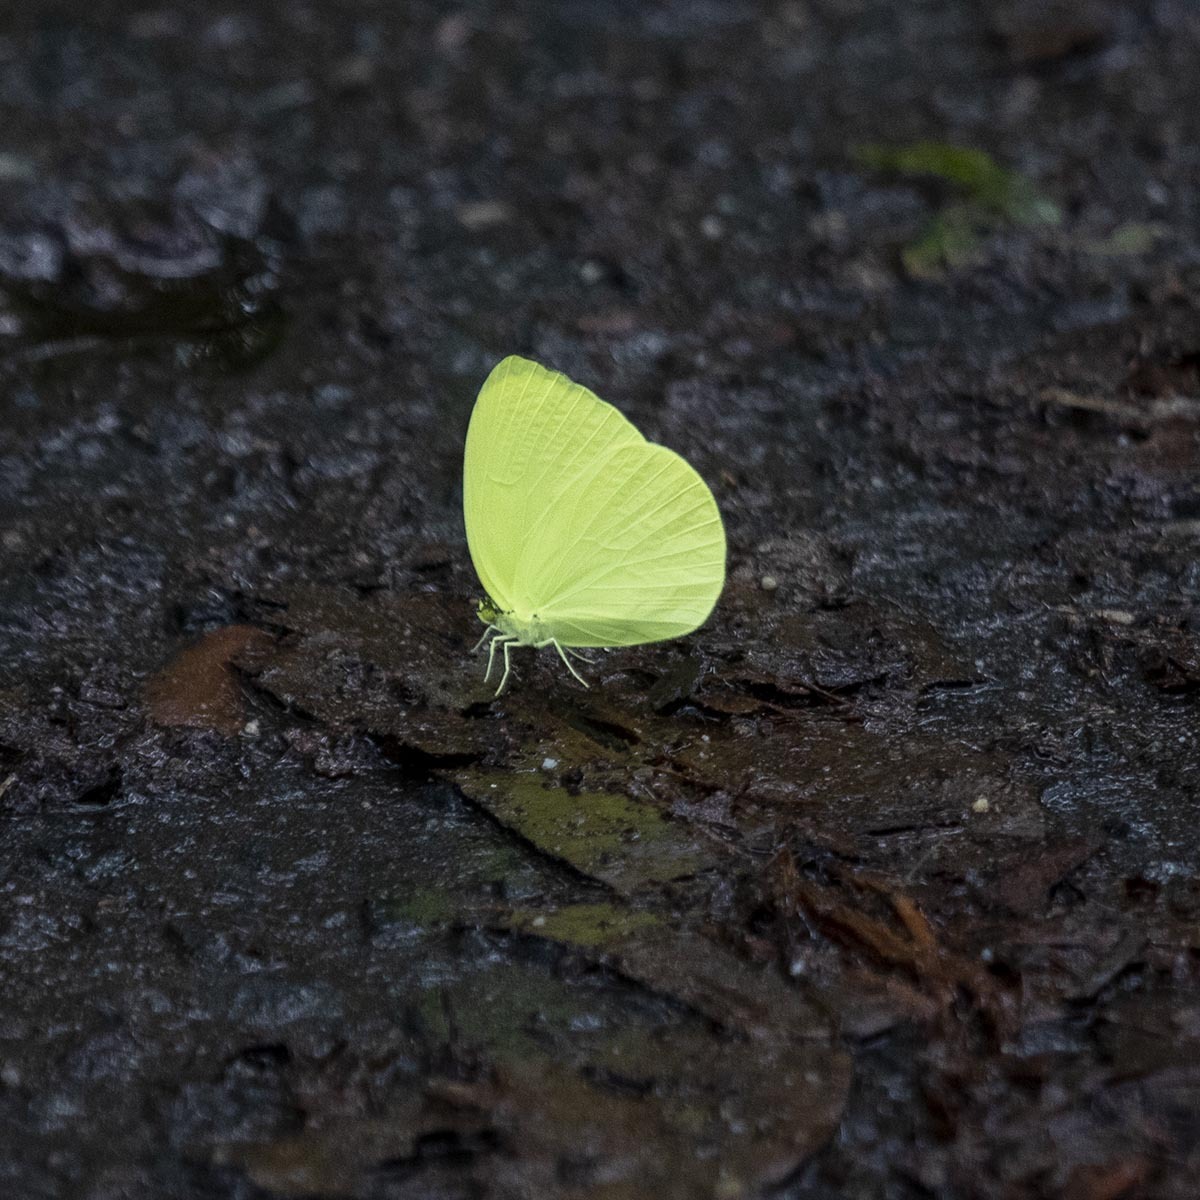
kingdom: Animalia
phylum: Arthropoda
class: Insecta
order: Lepidoptera
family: Pieridae
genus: Gandaca
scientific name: Gandaca harina
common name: Tree yellow
